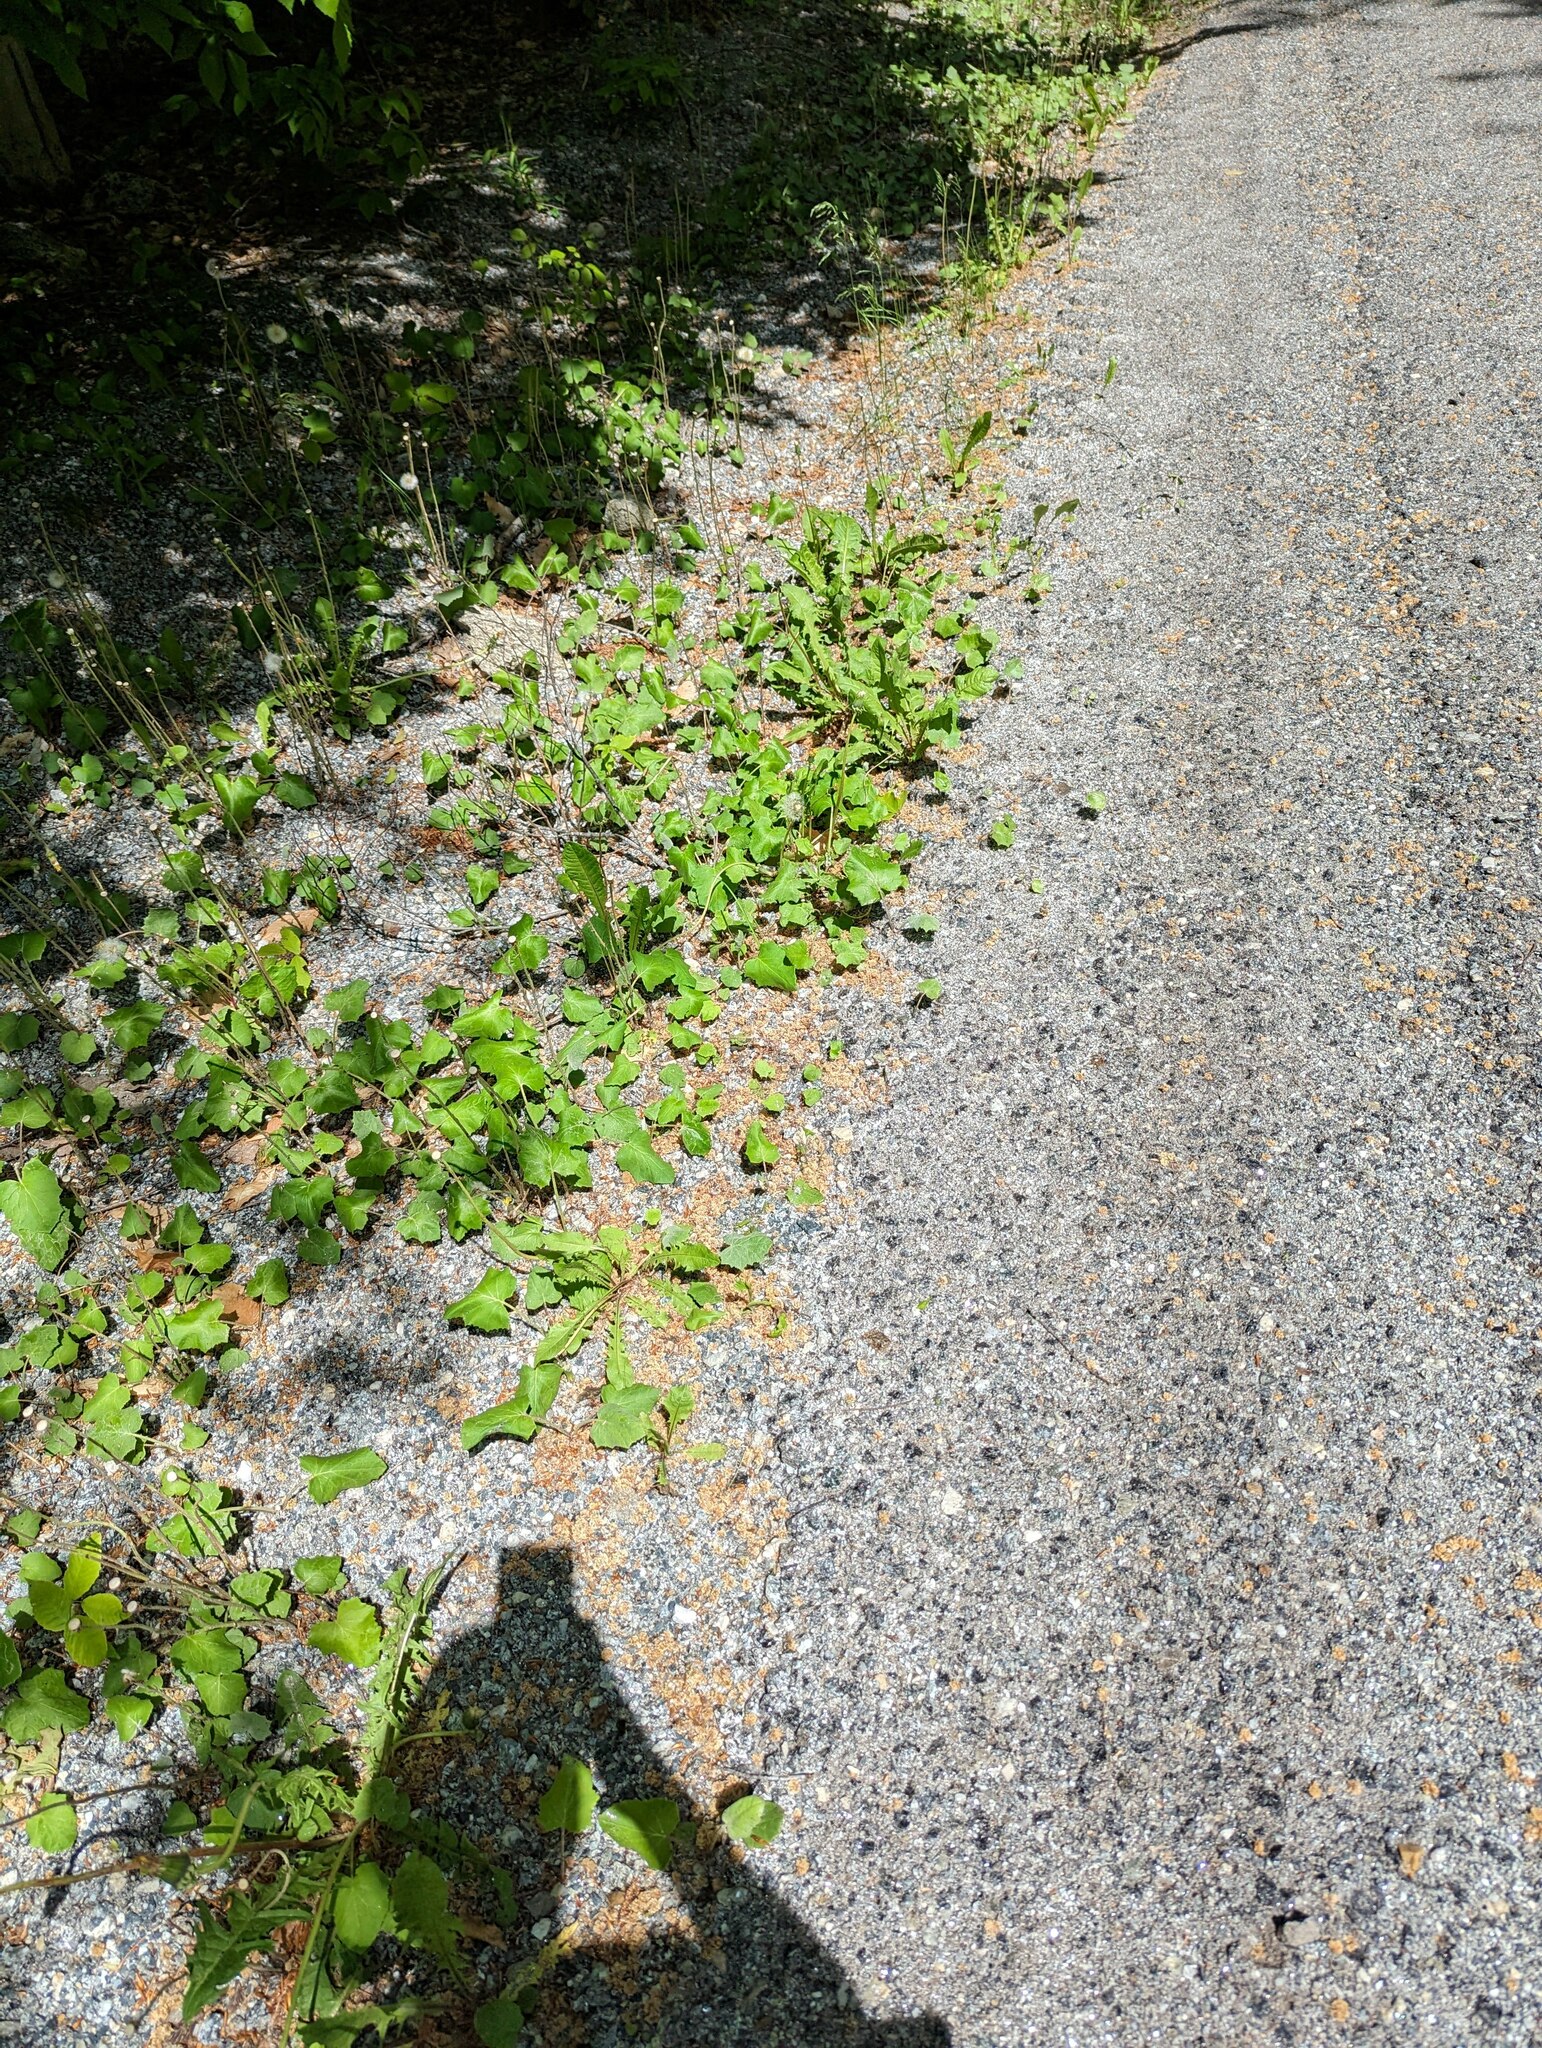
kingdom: Plantae
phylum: Tracheophyta
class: Magnoliopsida
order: Asterales
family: Asteraceae
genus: Tussilago
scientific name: Tussilago farfara
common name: Coltsfoot
